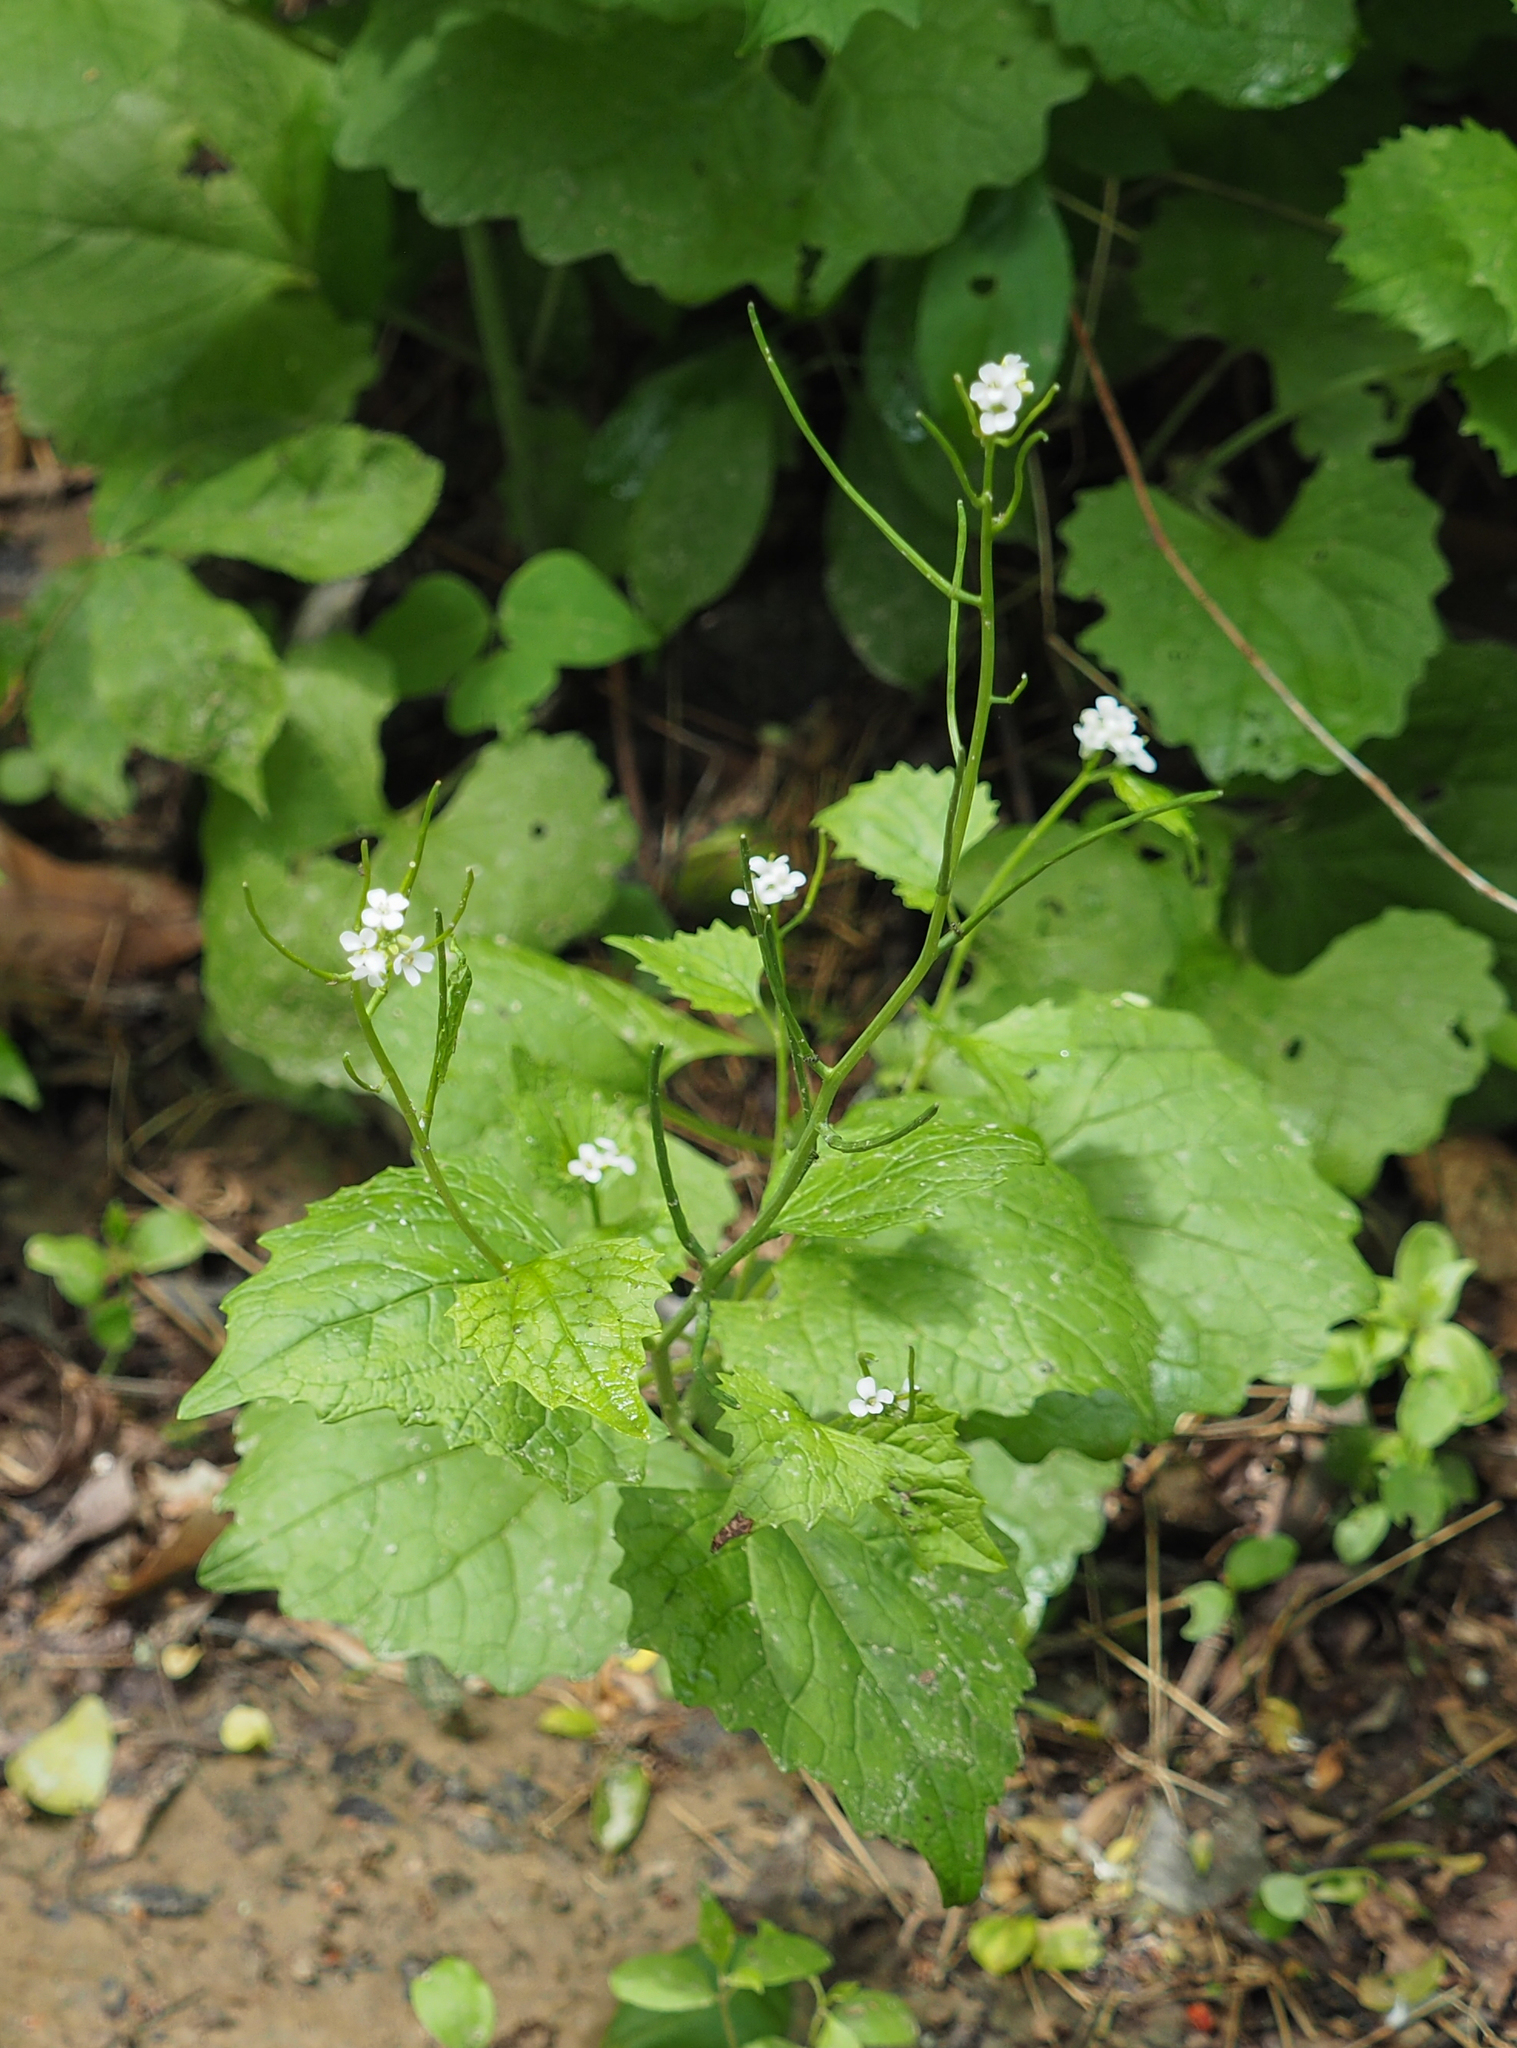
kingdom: Plantae
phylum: Tracheophyta
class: Magnoliopsida
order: Brassicales
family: Brassicaceae
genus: Alliaria
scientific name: Alliaria petiolata
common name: Garlic mustard
